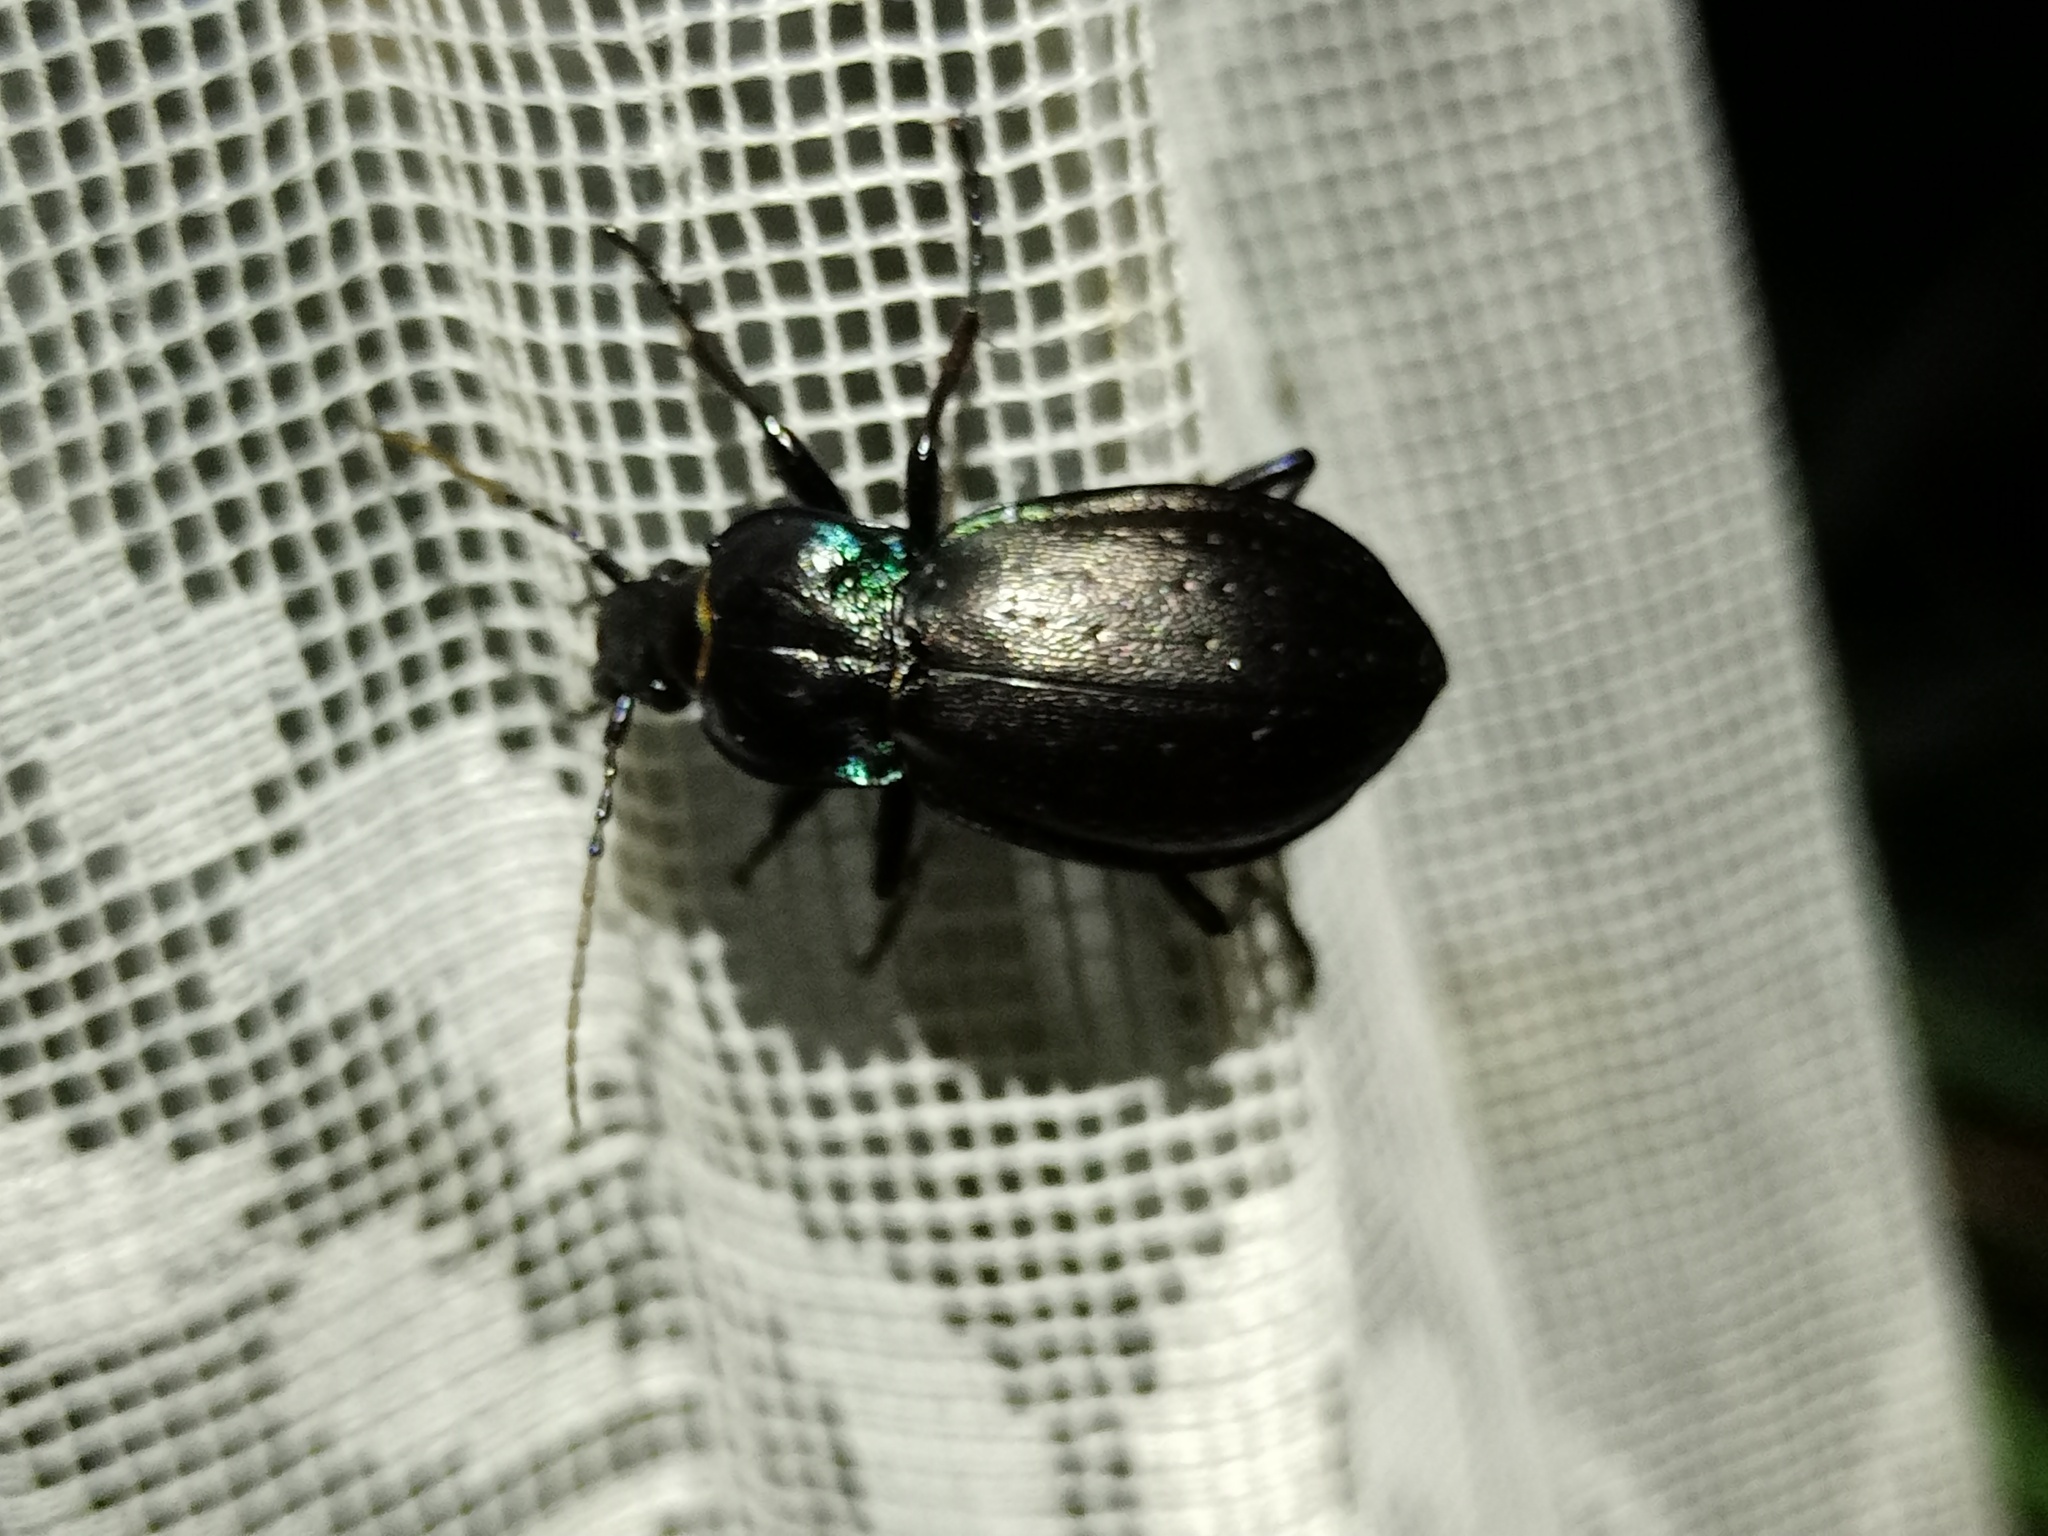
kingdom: Animalia
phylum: Arthropoda
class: Insecta
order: Coleoptera
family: Carabidae
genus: Carabus
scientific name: Carabus nemoralis
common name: European ground beetle
